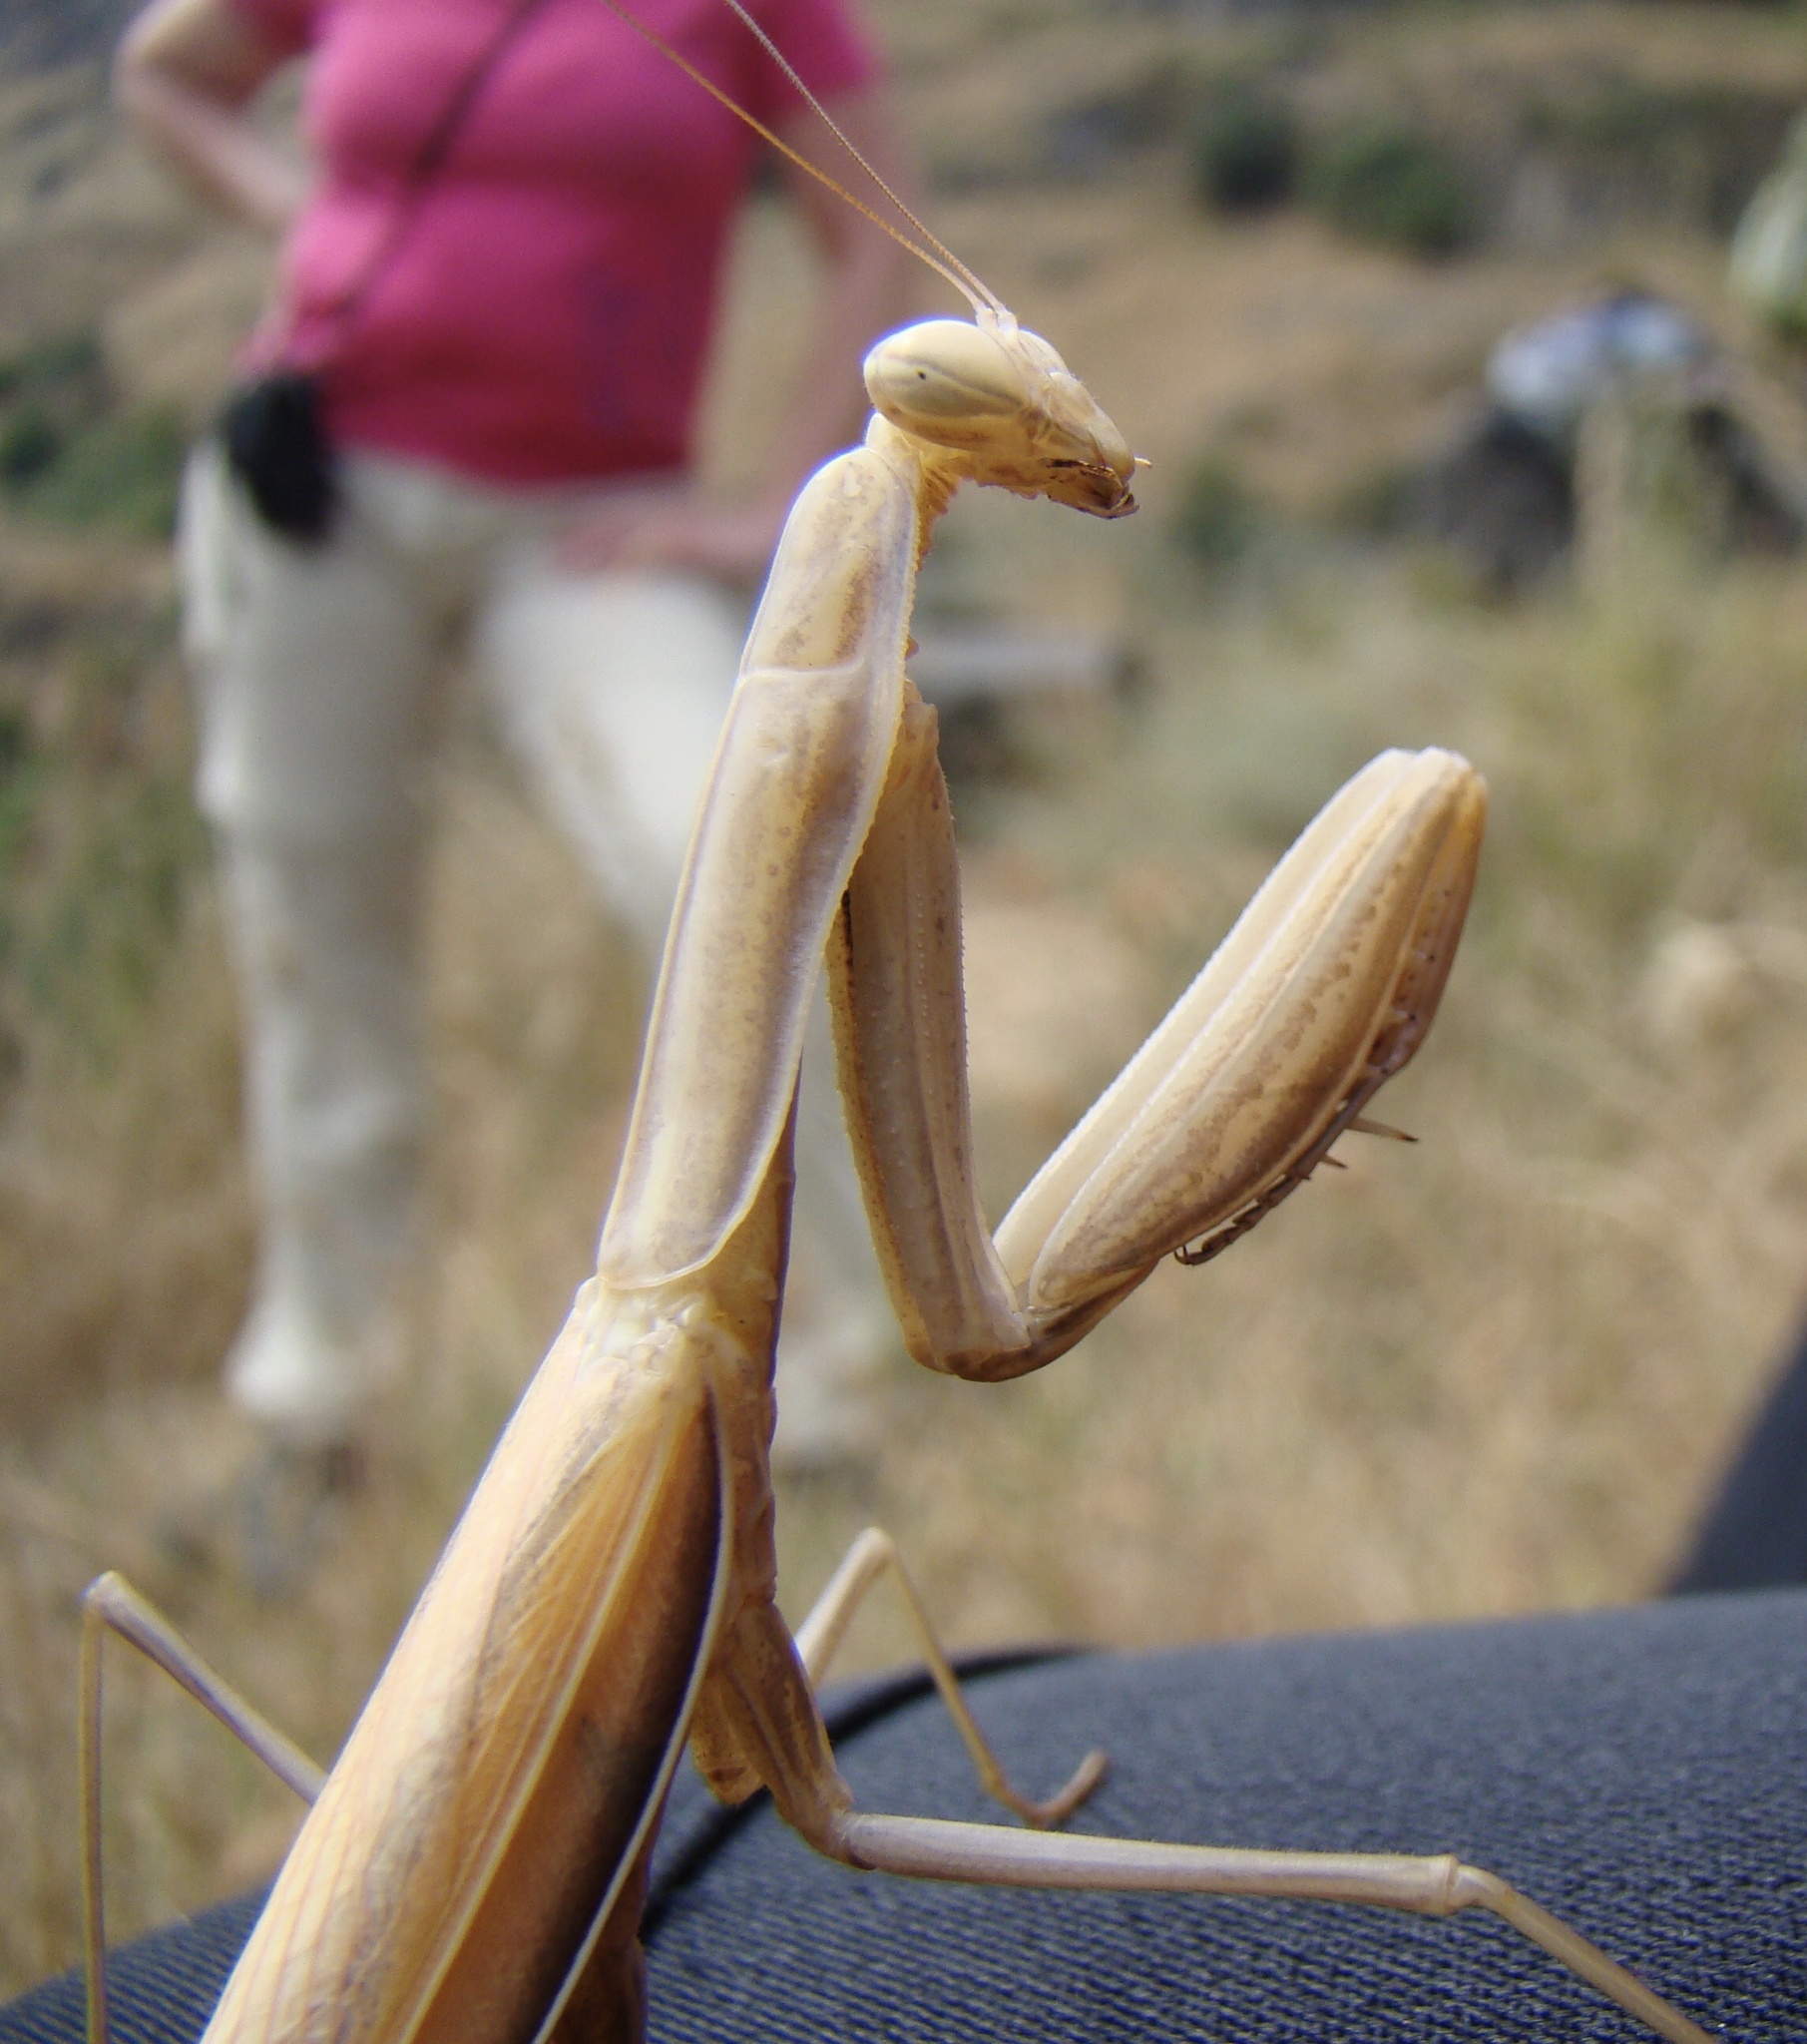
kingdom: Animalia
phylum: Arthropoda
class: Insecta
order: Mantodea
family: Mantidae
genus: Mantis
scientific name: Mantis religiosa
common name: Praying mantis
